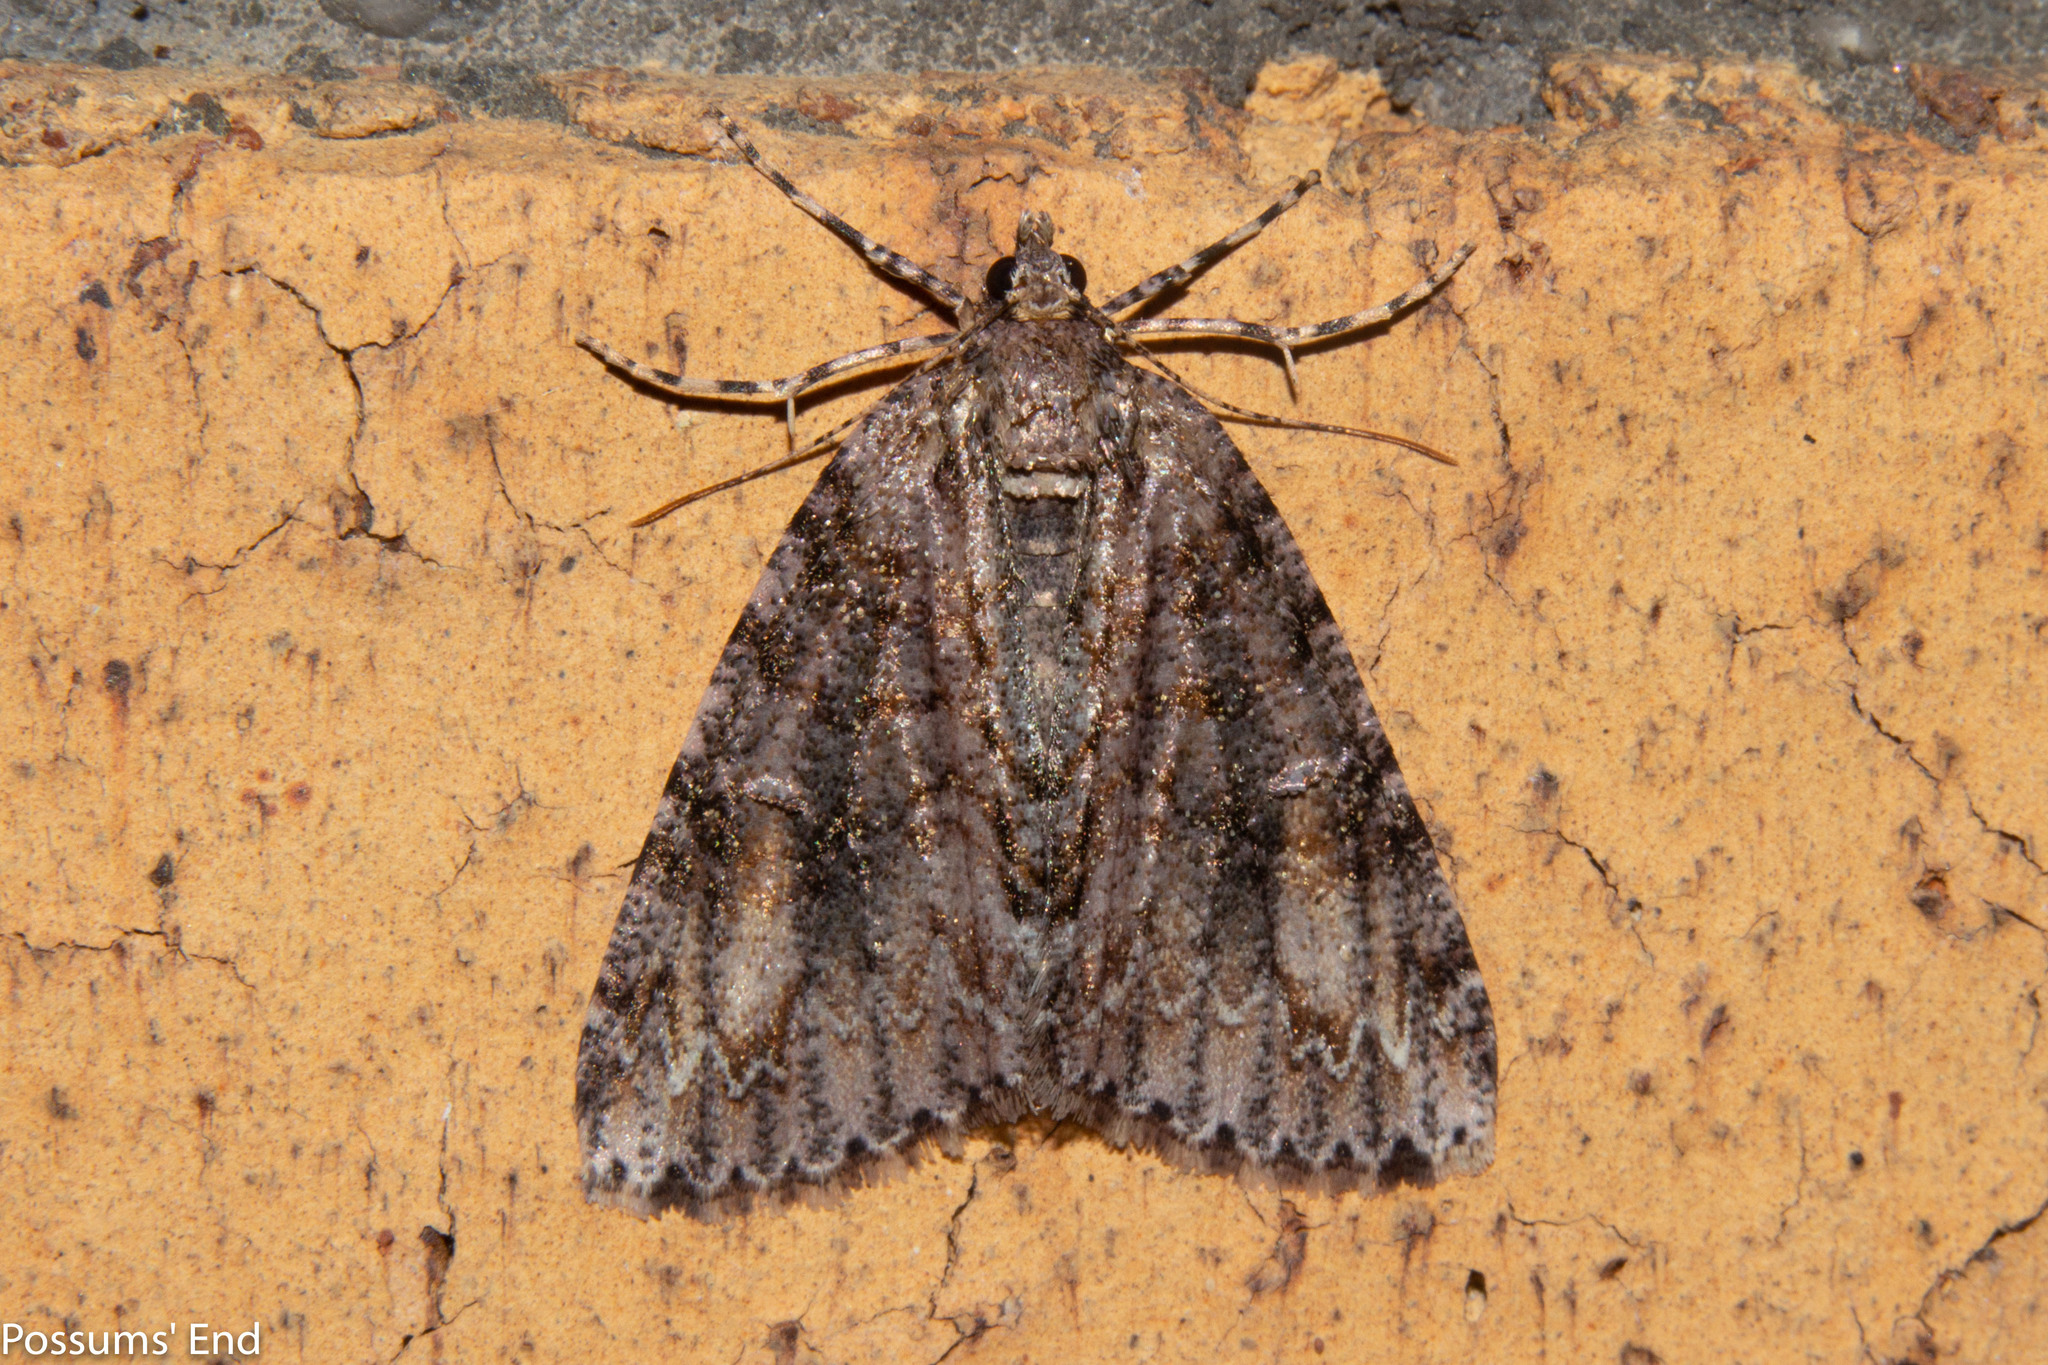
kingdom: Animalia
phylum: Arthropoda
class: Insecta
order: Lepidoptera
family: Geometridae
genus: Pseudocoremia
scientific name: Pseudocoremia suavis
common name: Common forest looper
